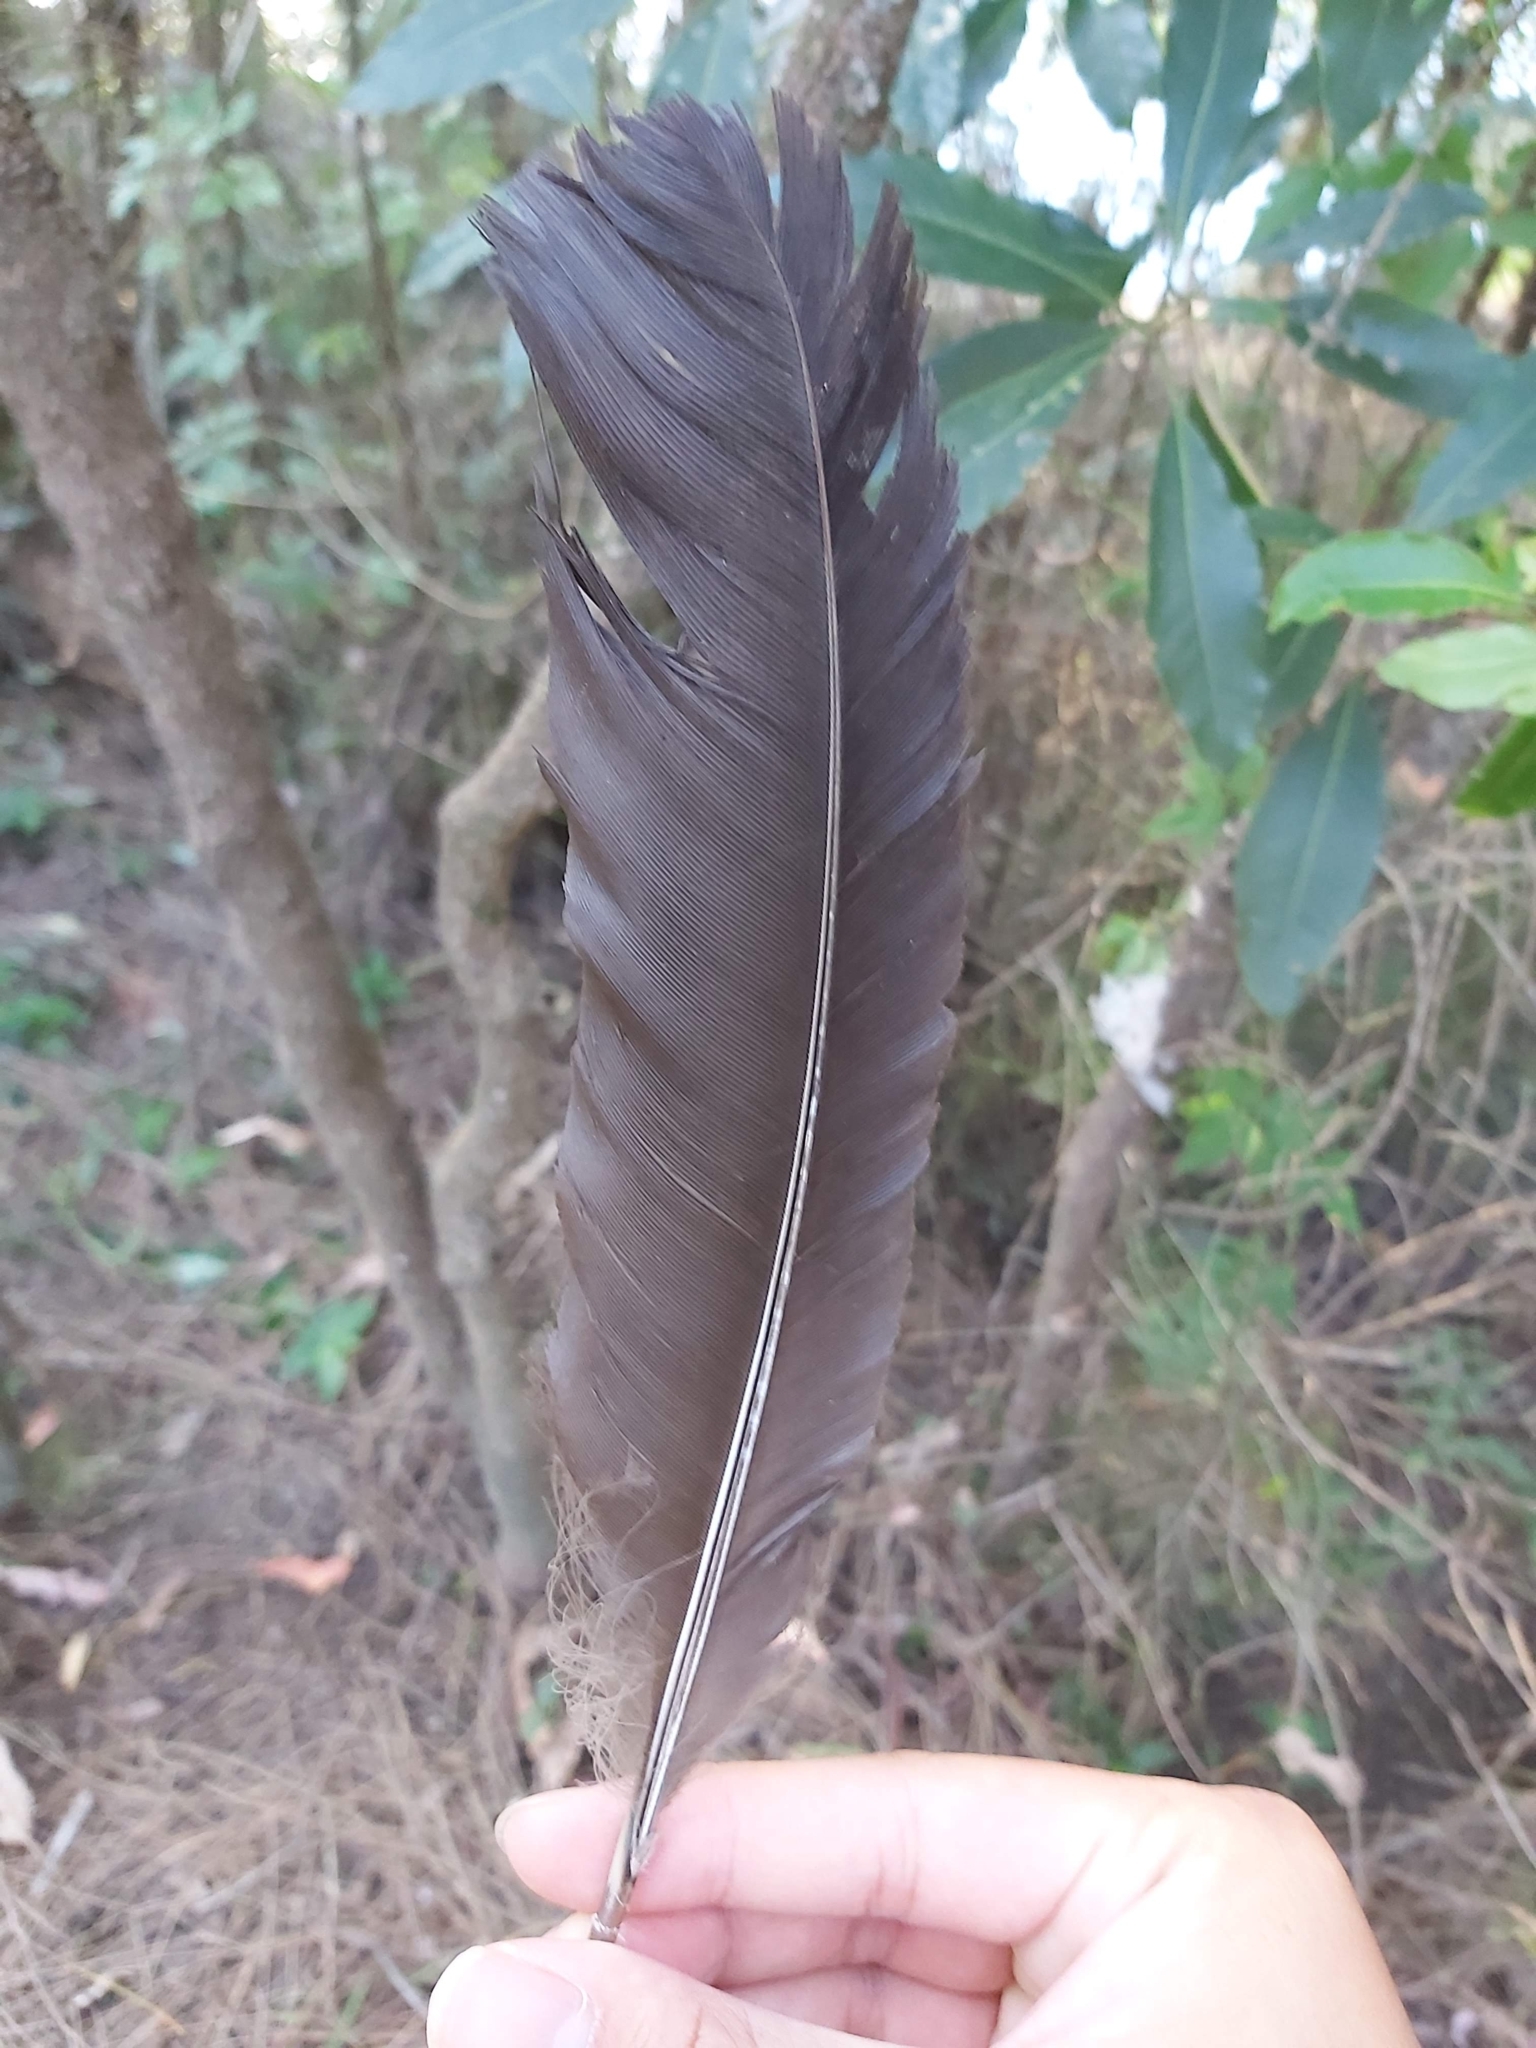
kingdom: Animalia
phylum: Chordata
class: Aves
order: Galliformes
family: Megapodiidae
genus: Alectura
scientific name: Alectura lathami
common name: Australian brushturkey
